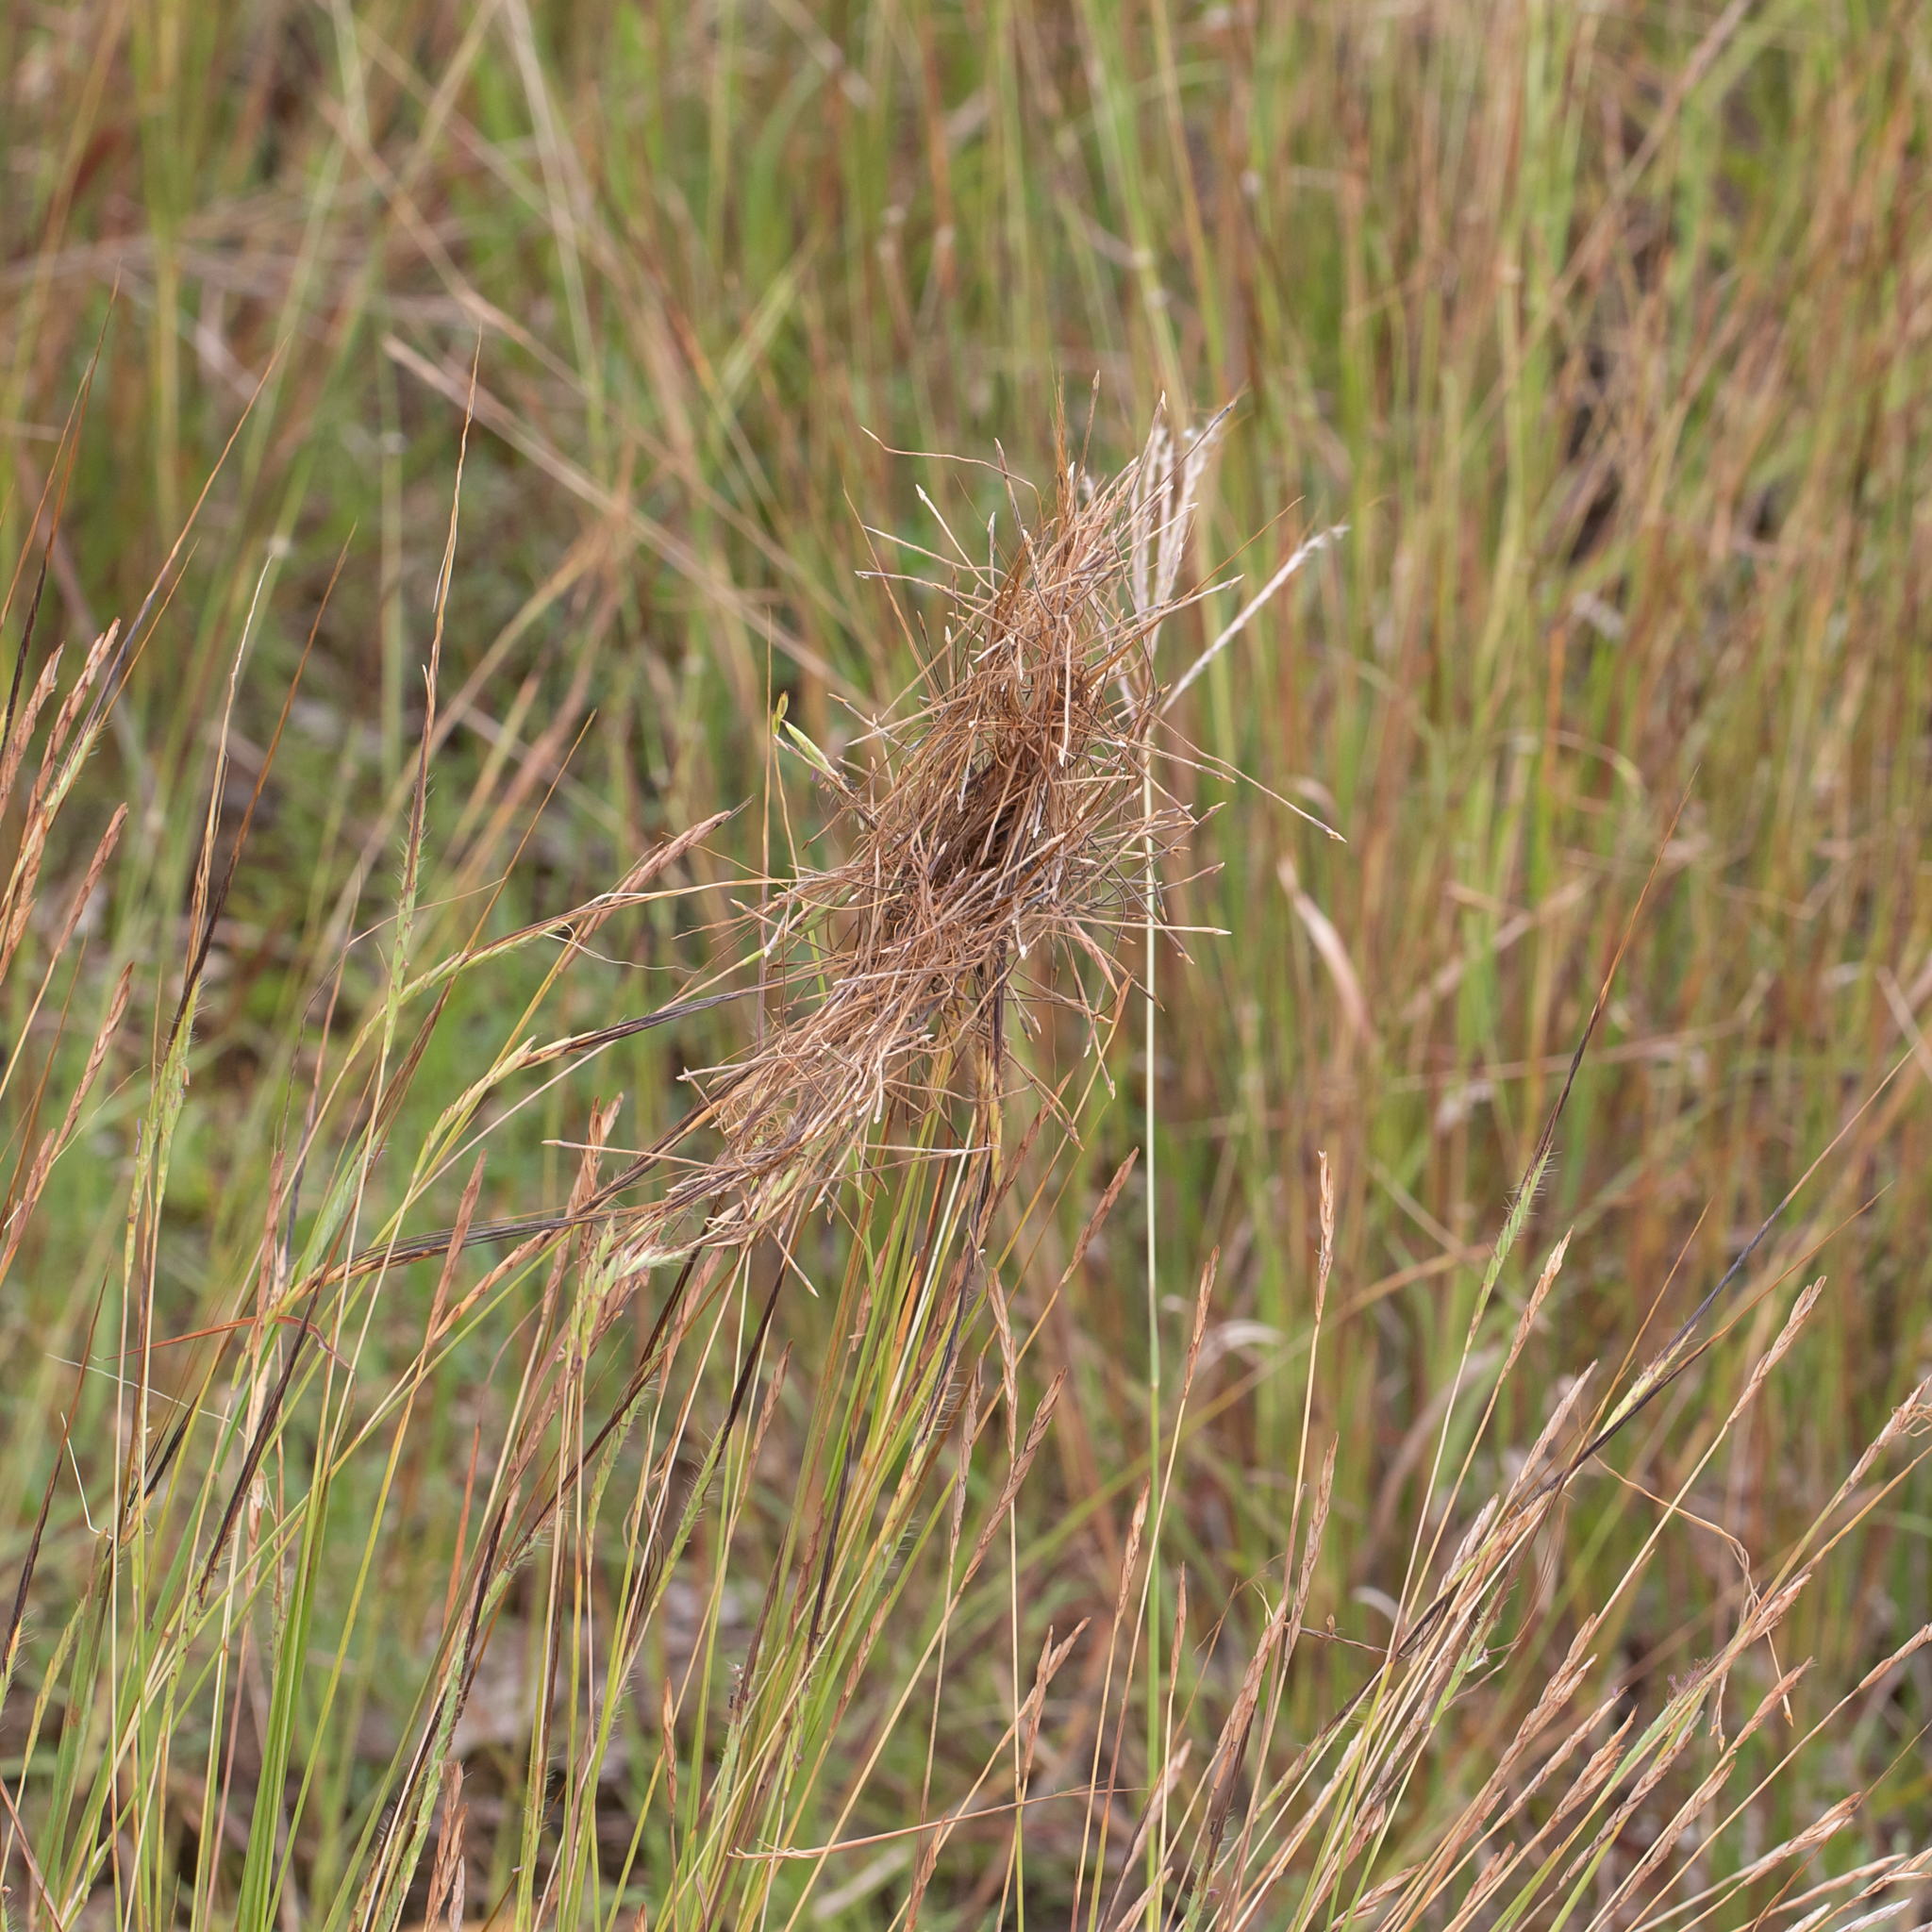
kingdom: Plantae
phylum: Tracheophyta
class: Liliopsida
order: Poales
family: Poaceae
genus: Heteropogon
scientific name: Heteropogon contortus
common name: Tanglehead
